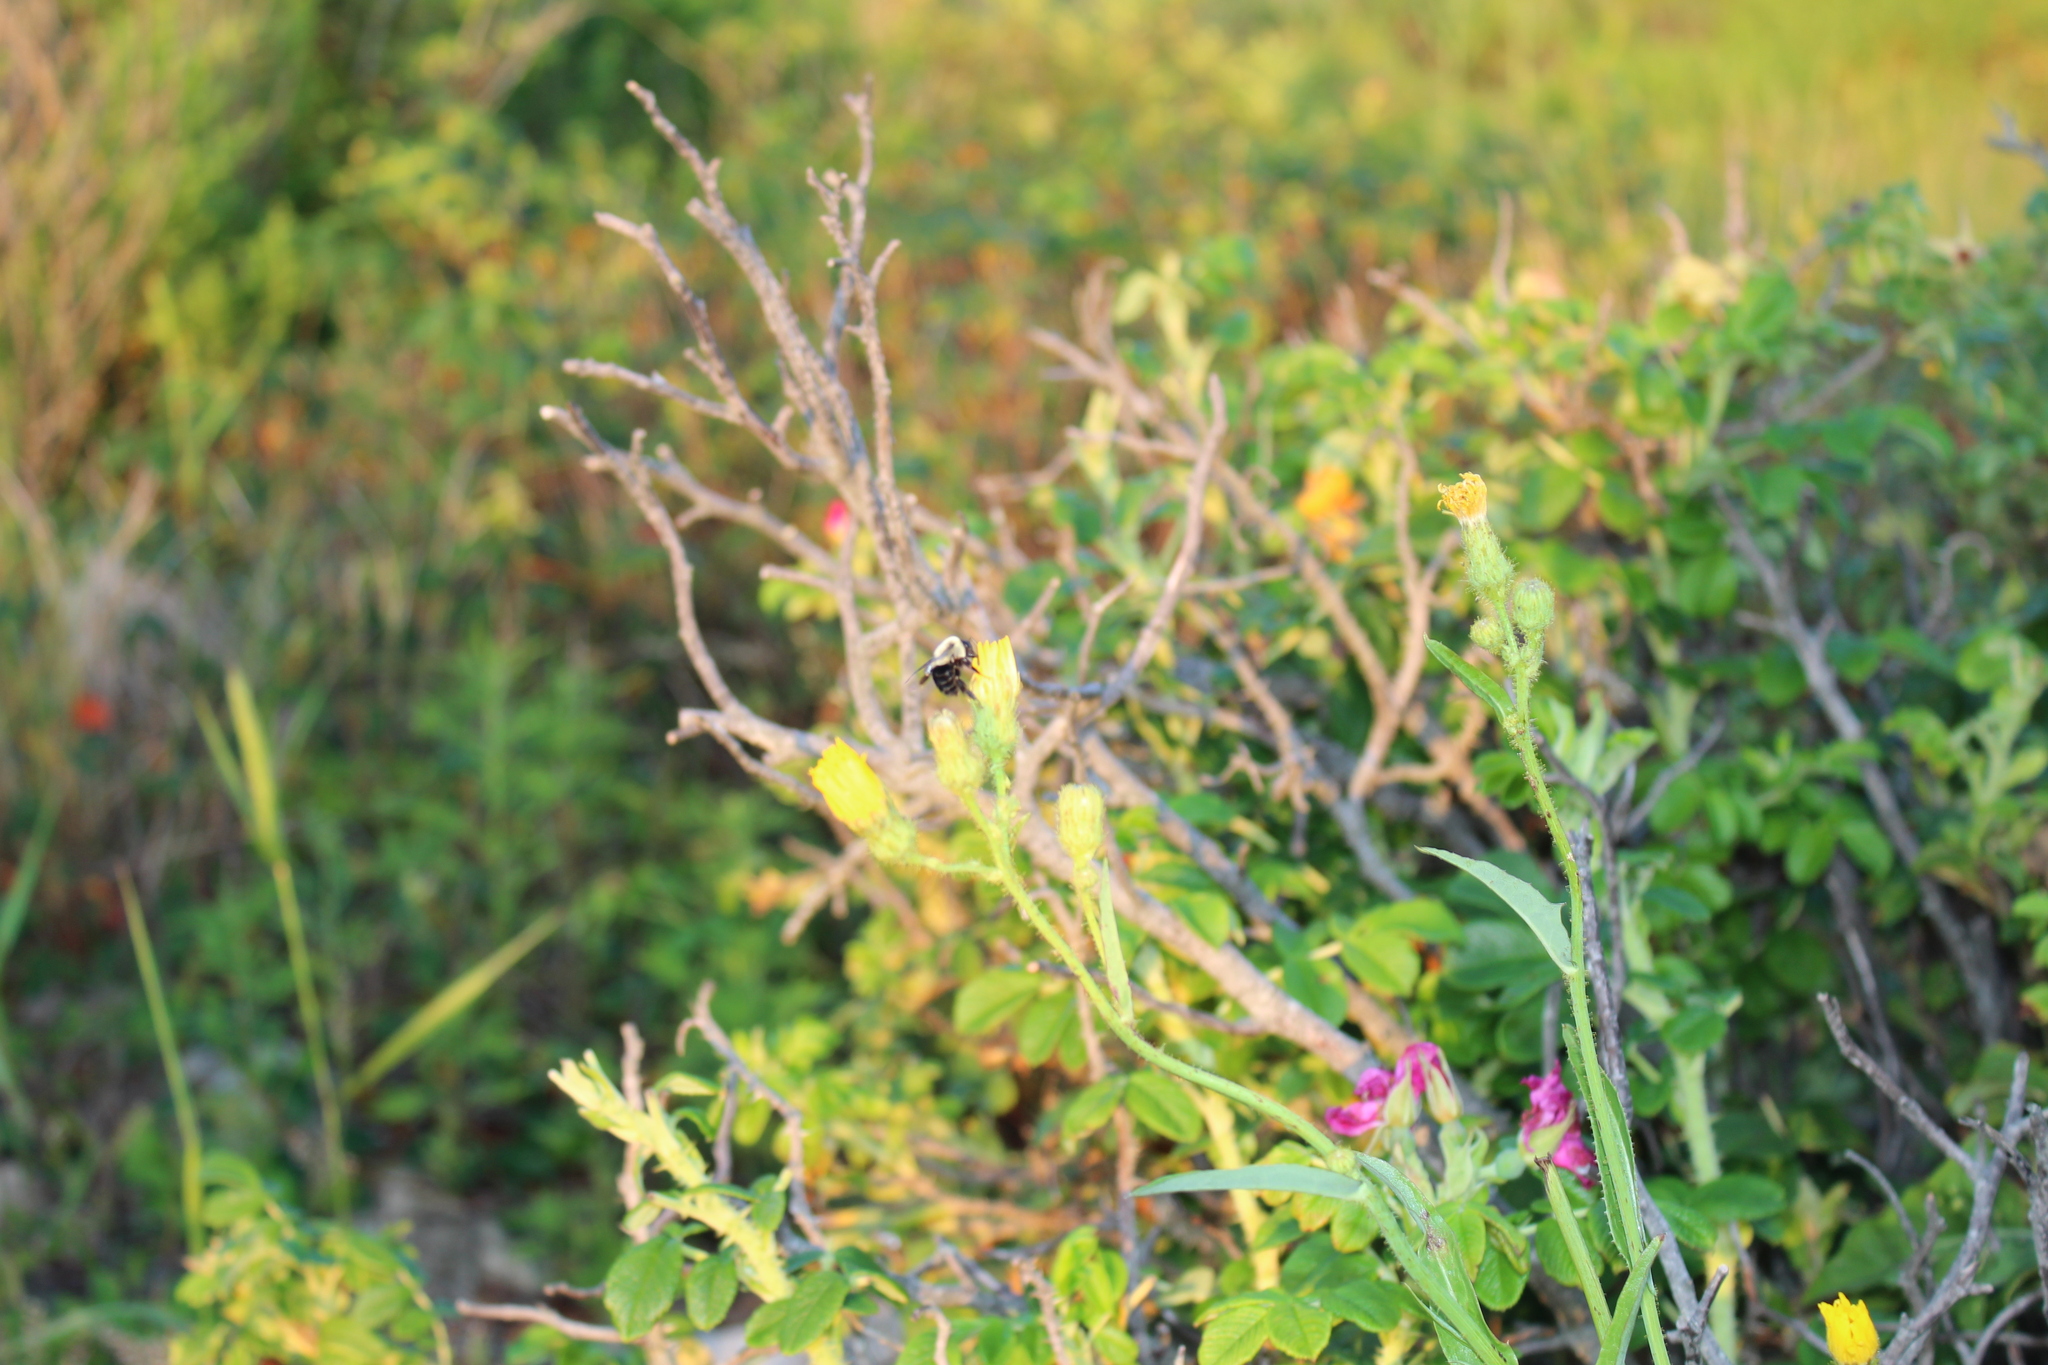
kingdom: Animalia
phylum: Arthropoda
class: Insecta
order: Hymenoptera
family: Apidae
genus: Bombus
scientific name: Bombus impatiens
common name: Common eastern bumble bee
